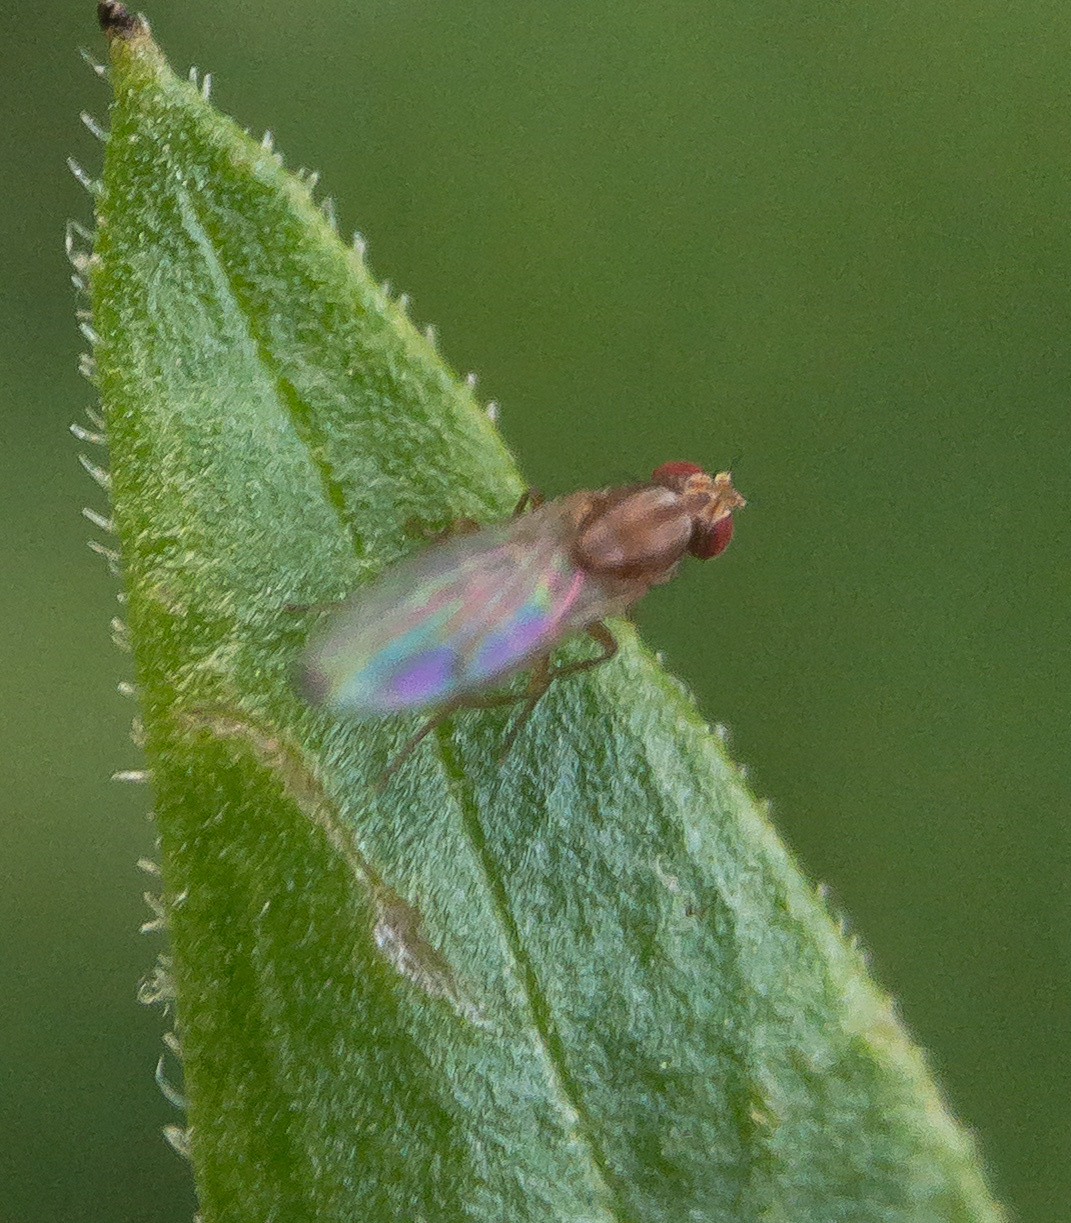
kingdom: Animalia
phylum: Arthropoda
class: Insecta
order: Diptera
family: Drosophilidae
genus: Scaptomyza
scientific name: Scaptomyza adusta
